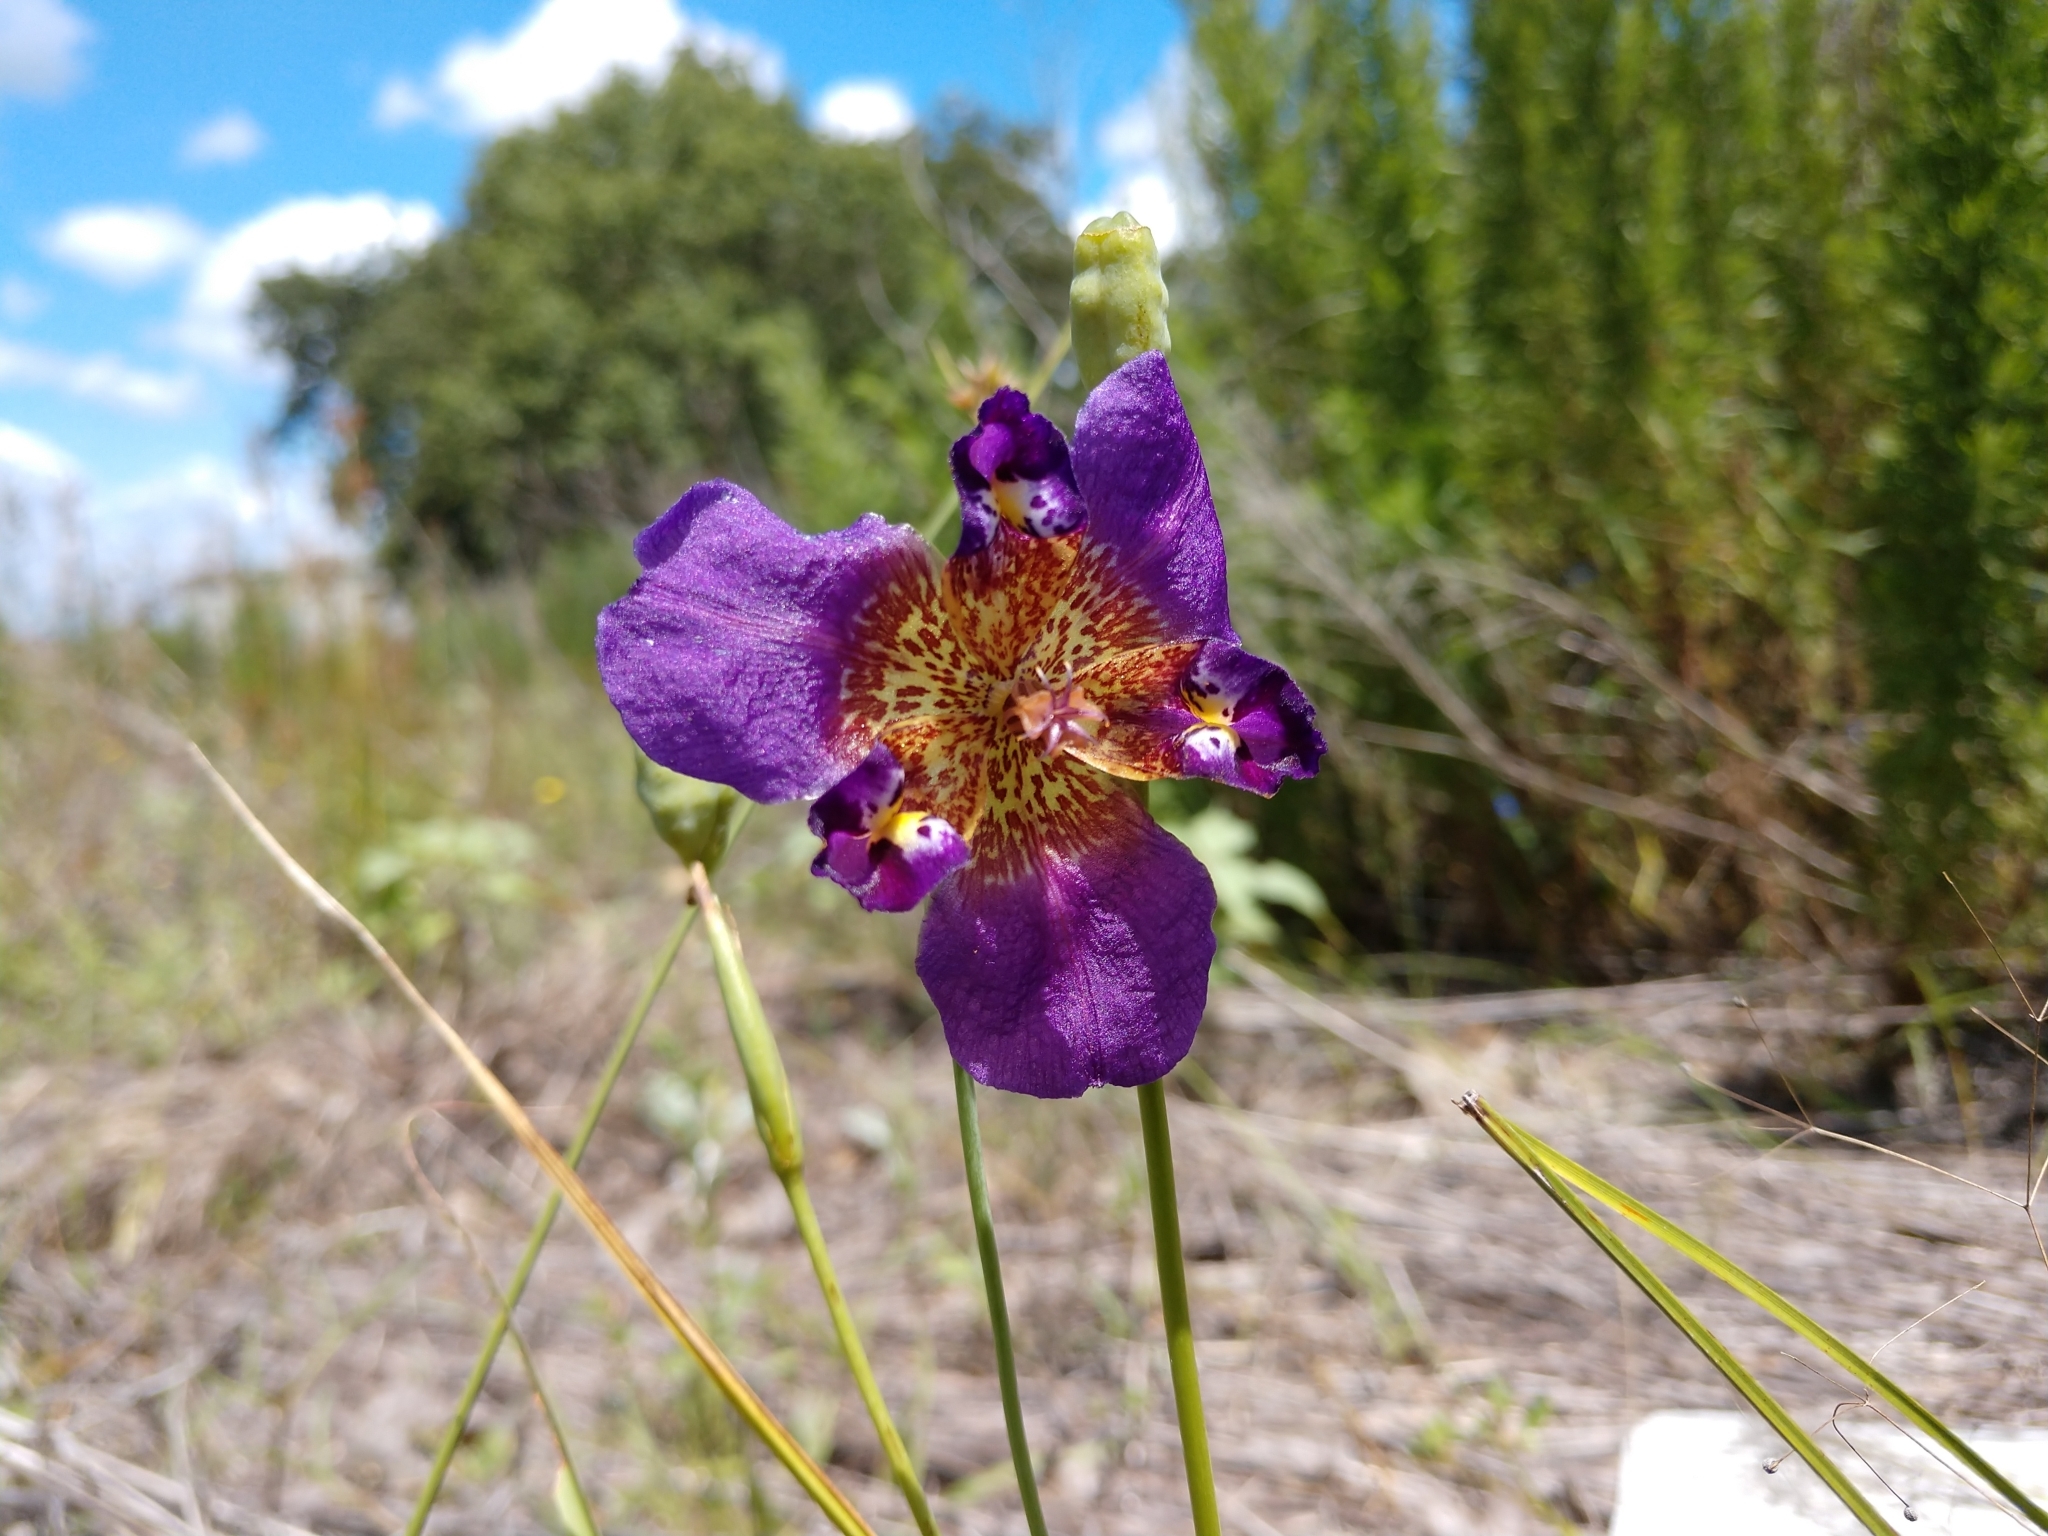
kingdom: Plantae
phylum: Tracheophyta
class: Liliopsida
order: Asparagales
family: Iridaceae
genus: Alophia
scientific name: Alophia drummondii
